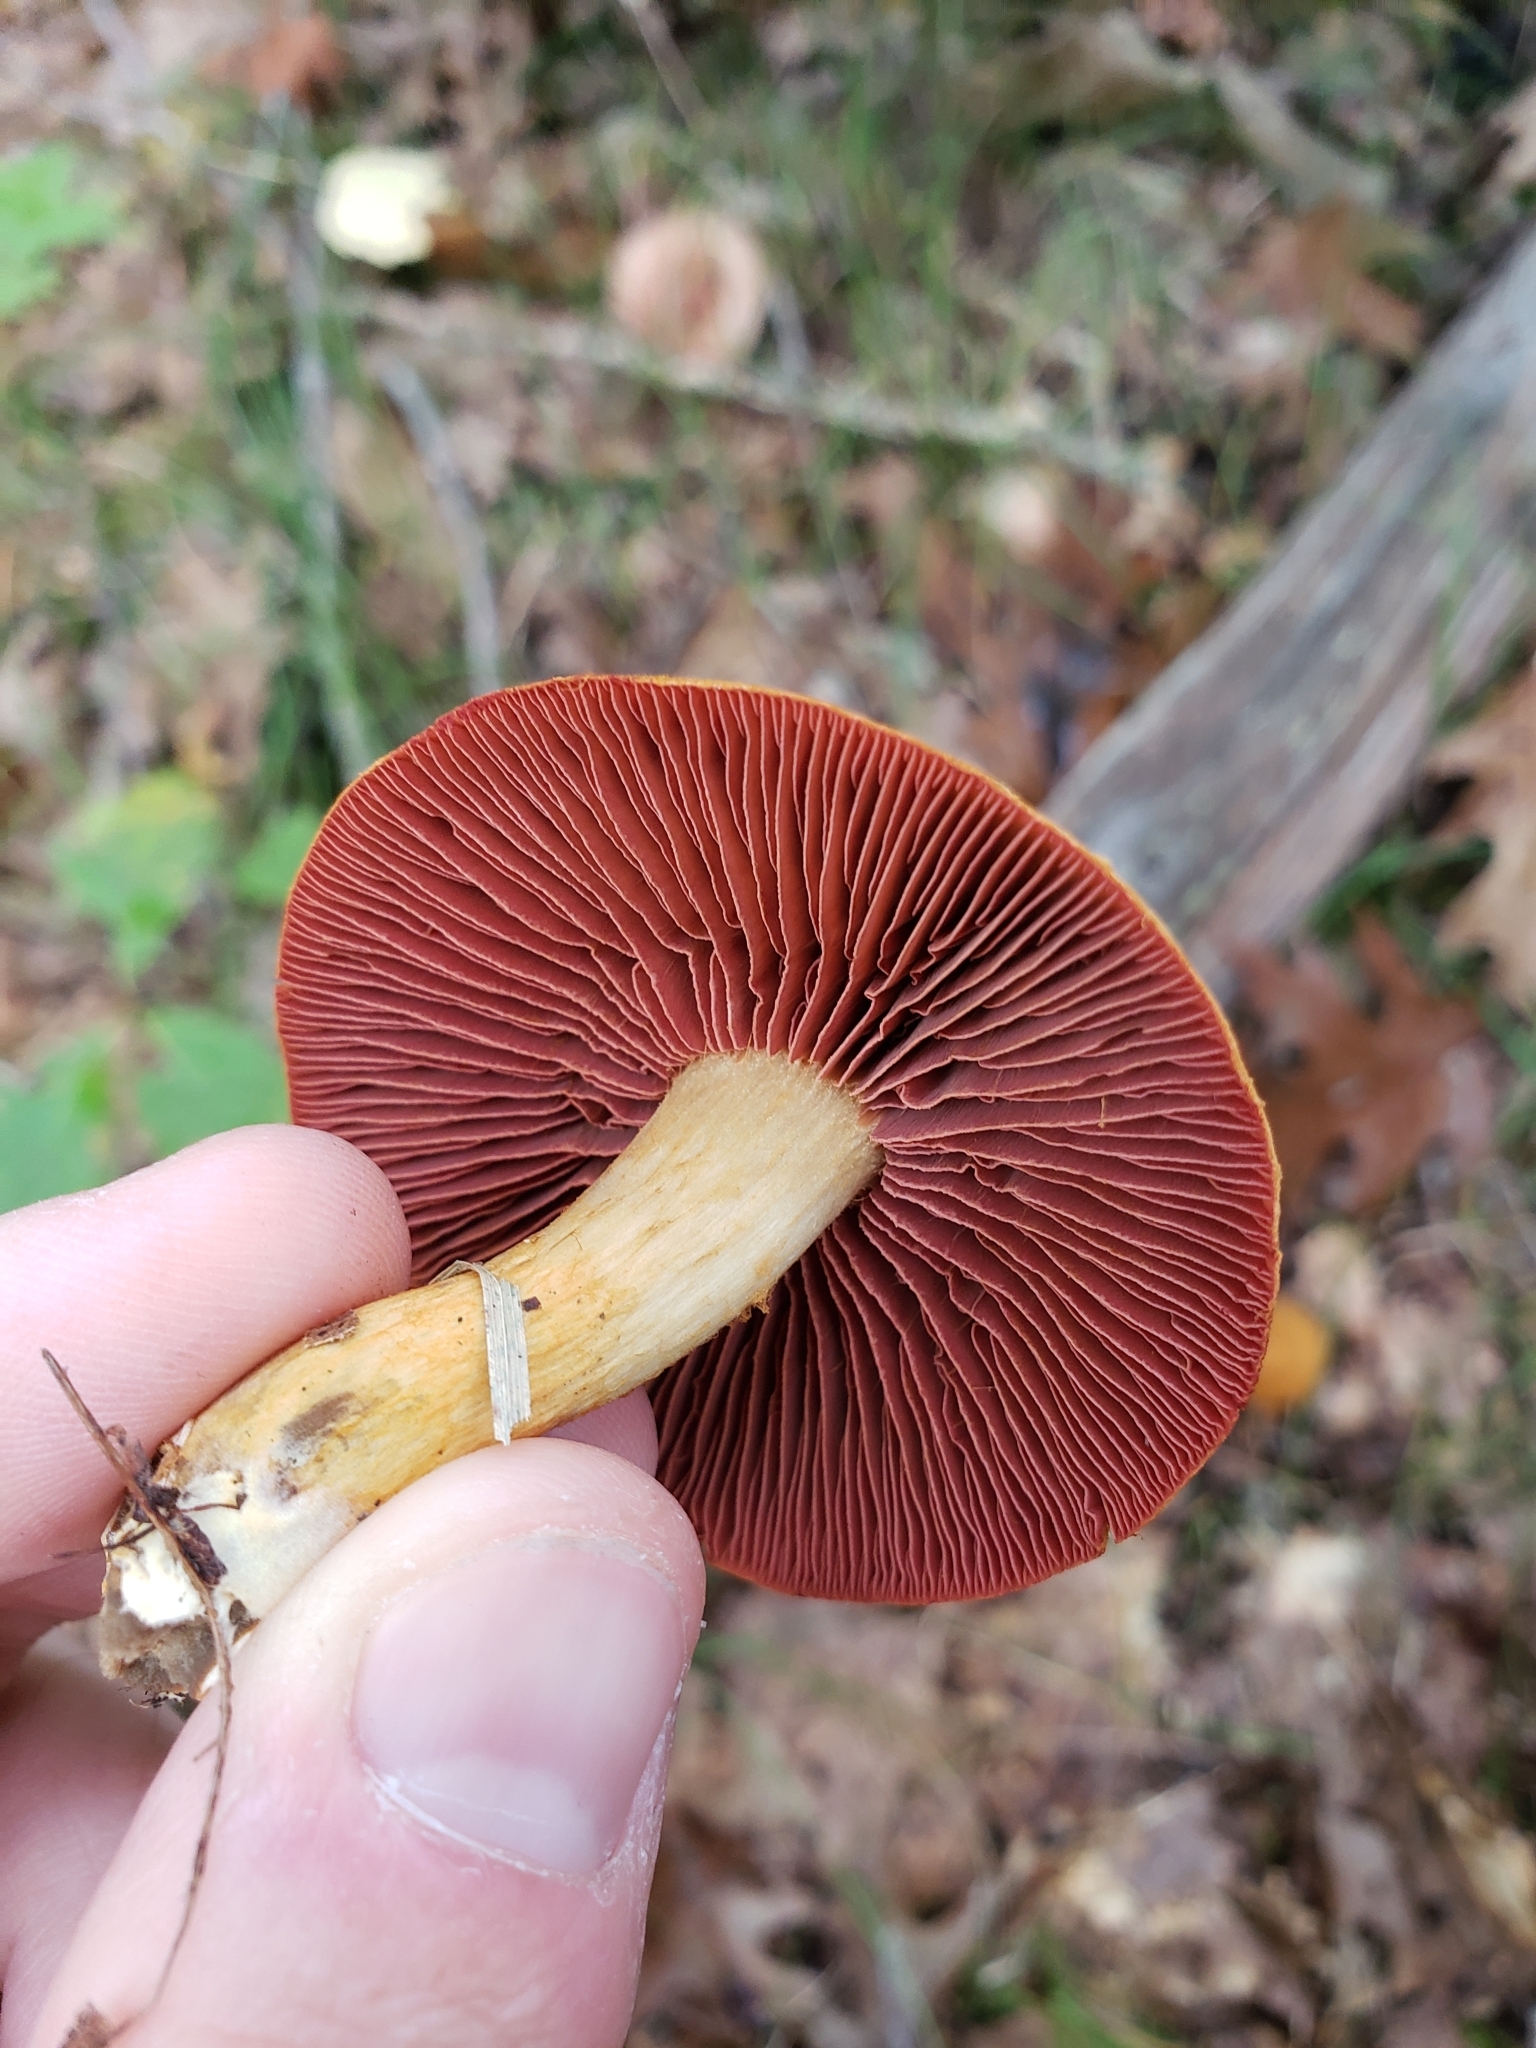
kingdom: Fungi
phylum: Basidiomycota
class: Agaricomycetes
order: Agaricales
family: Cortinariaceae
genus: Cortinarius
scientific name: Cortinarius semisanguineus
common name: Surprise webcap
